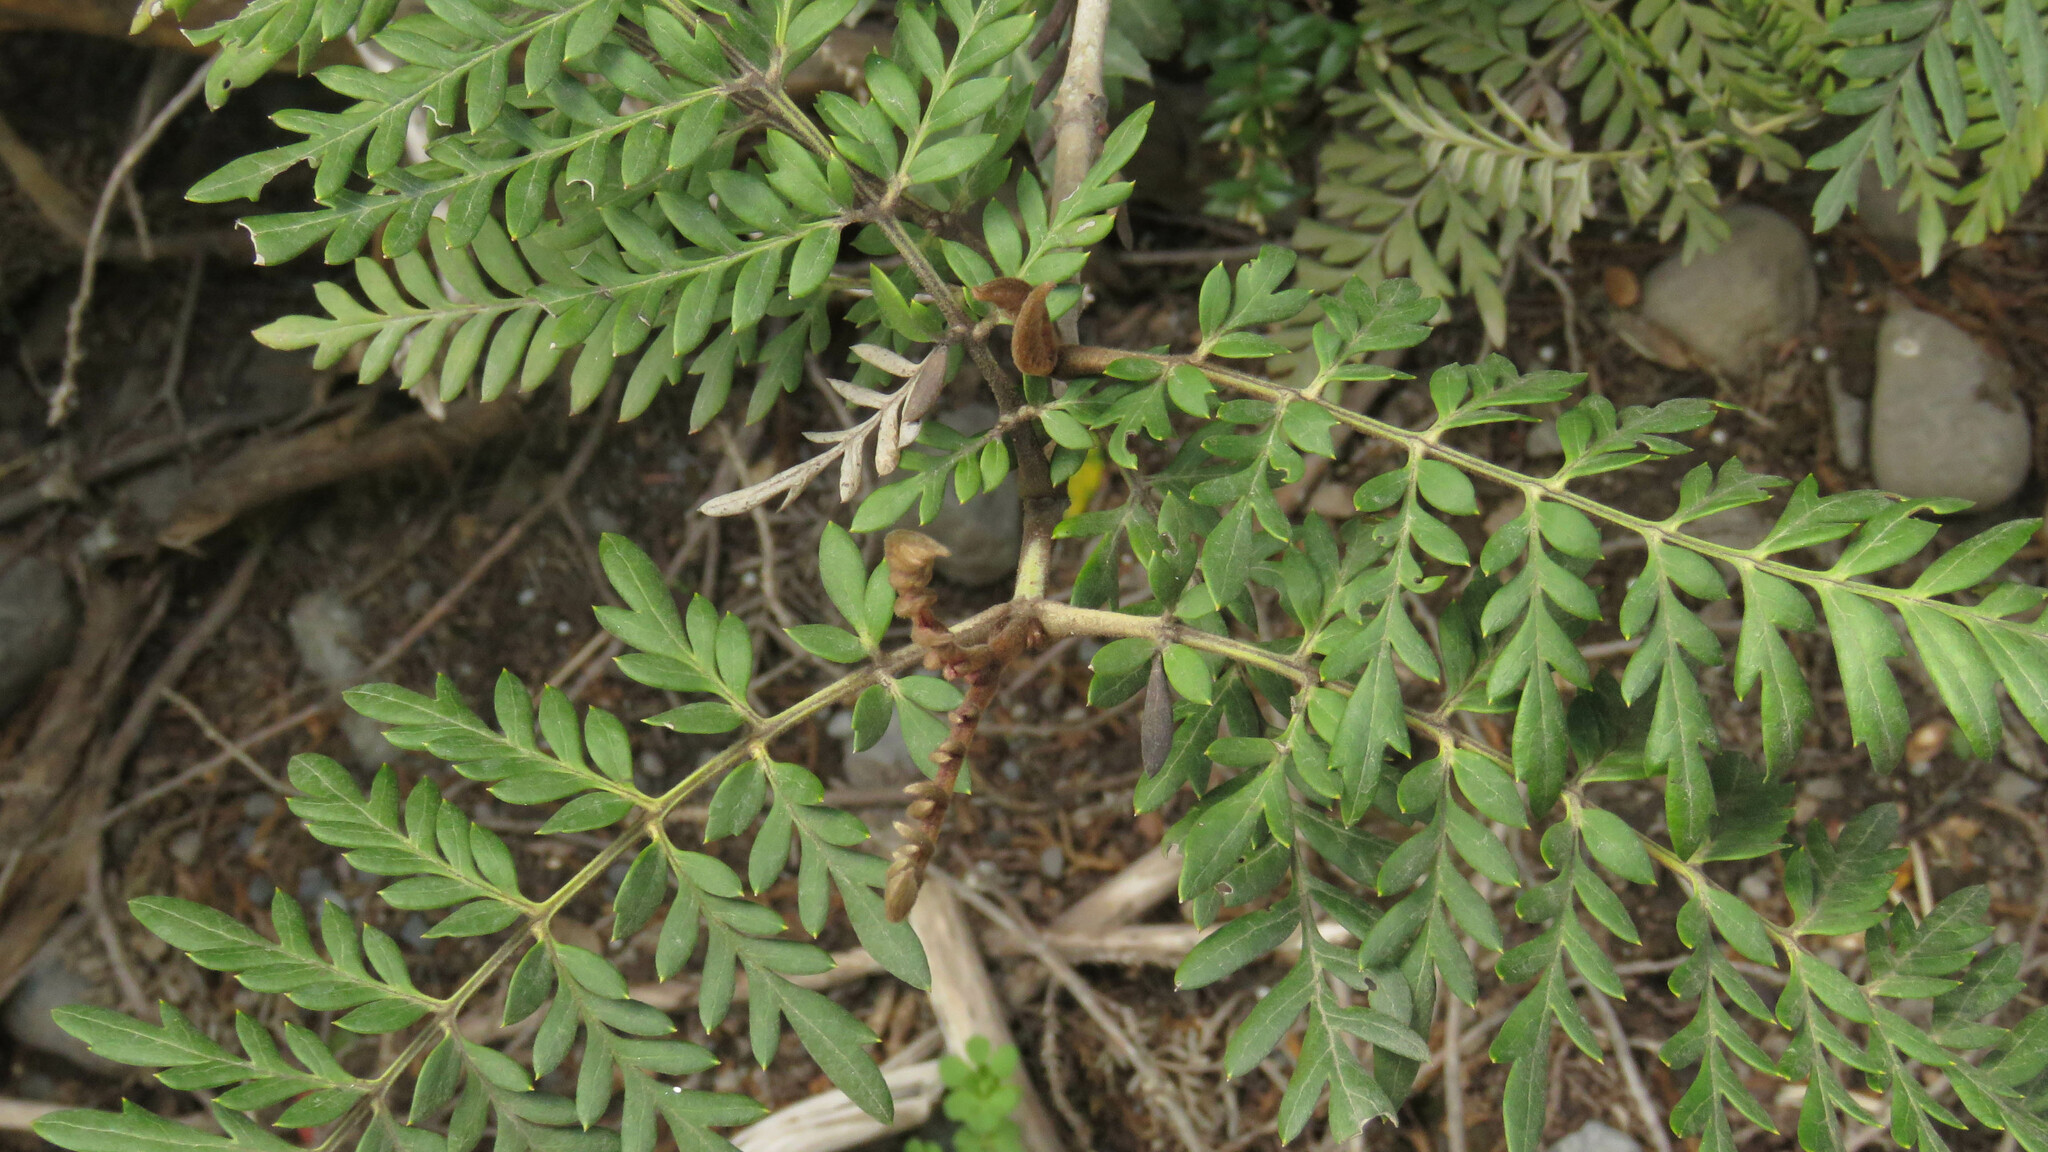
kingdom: Plantae
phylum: Tracheophyta
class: Magnoliopsida
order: Proteales
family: Proteaceae
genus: Lomatia
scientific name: Lomatia ferruginea
